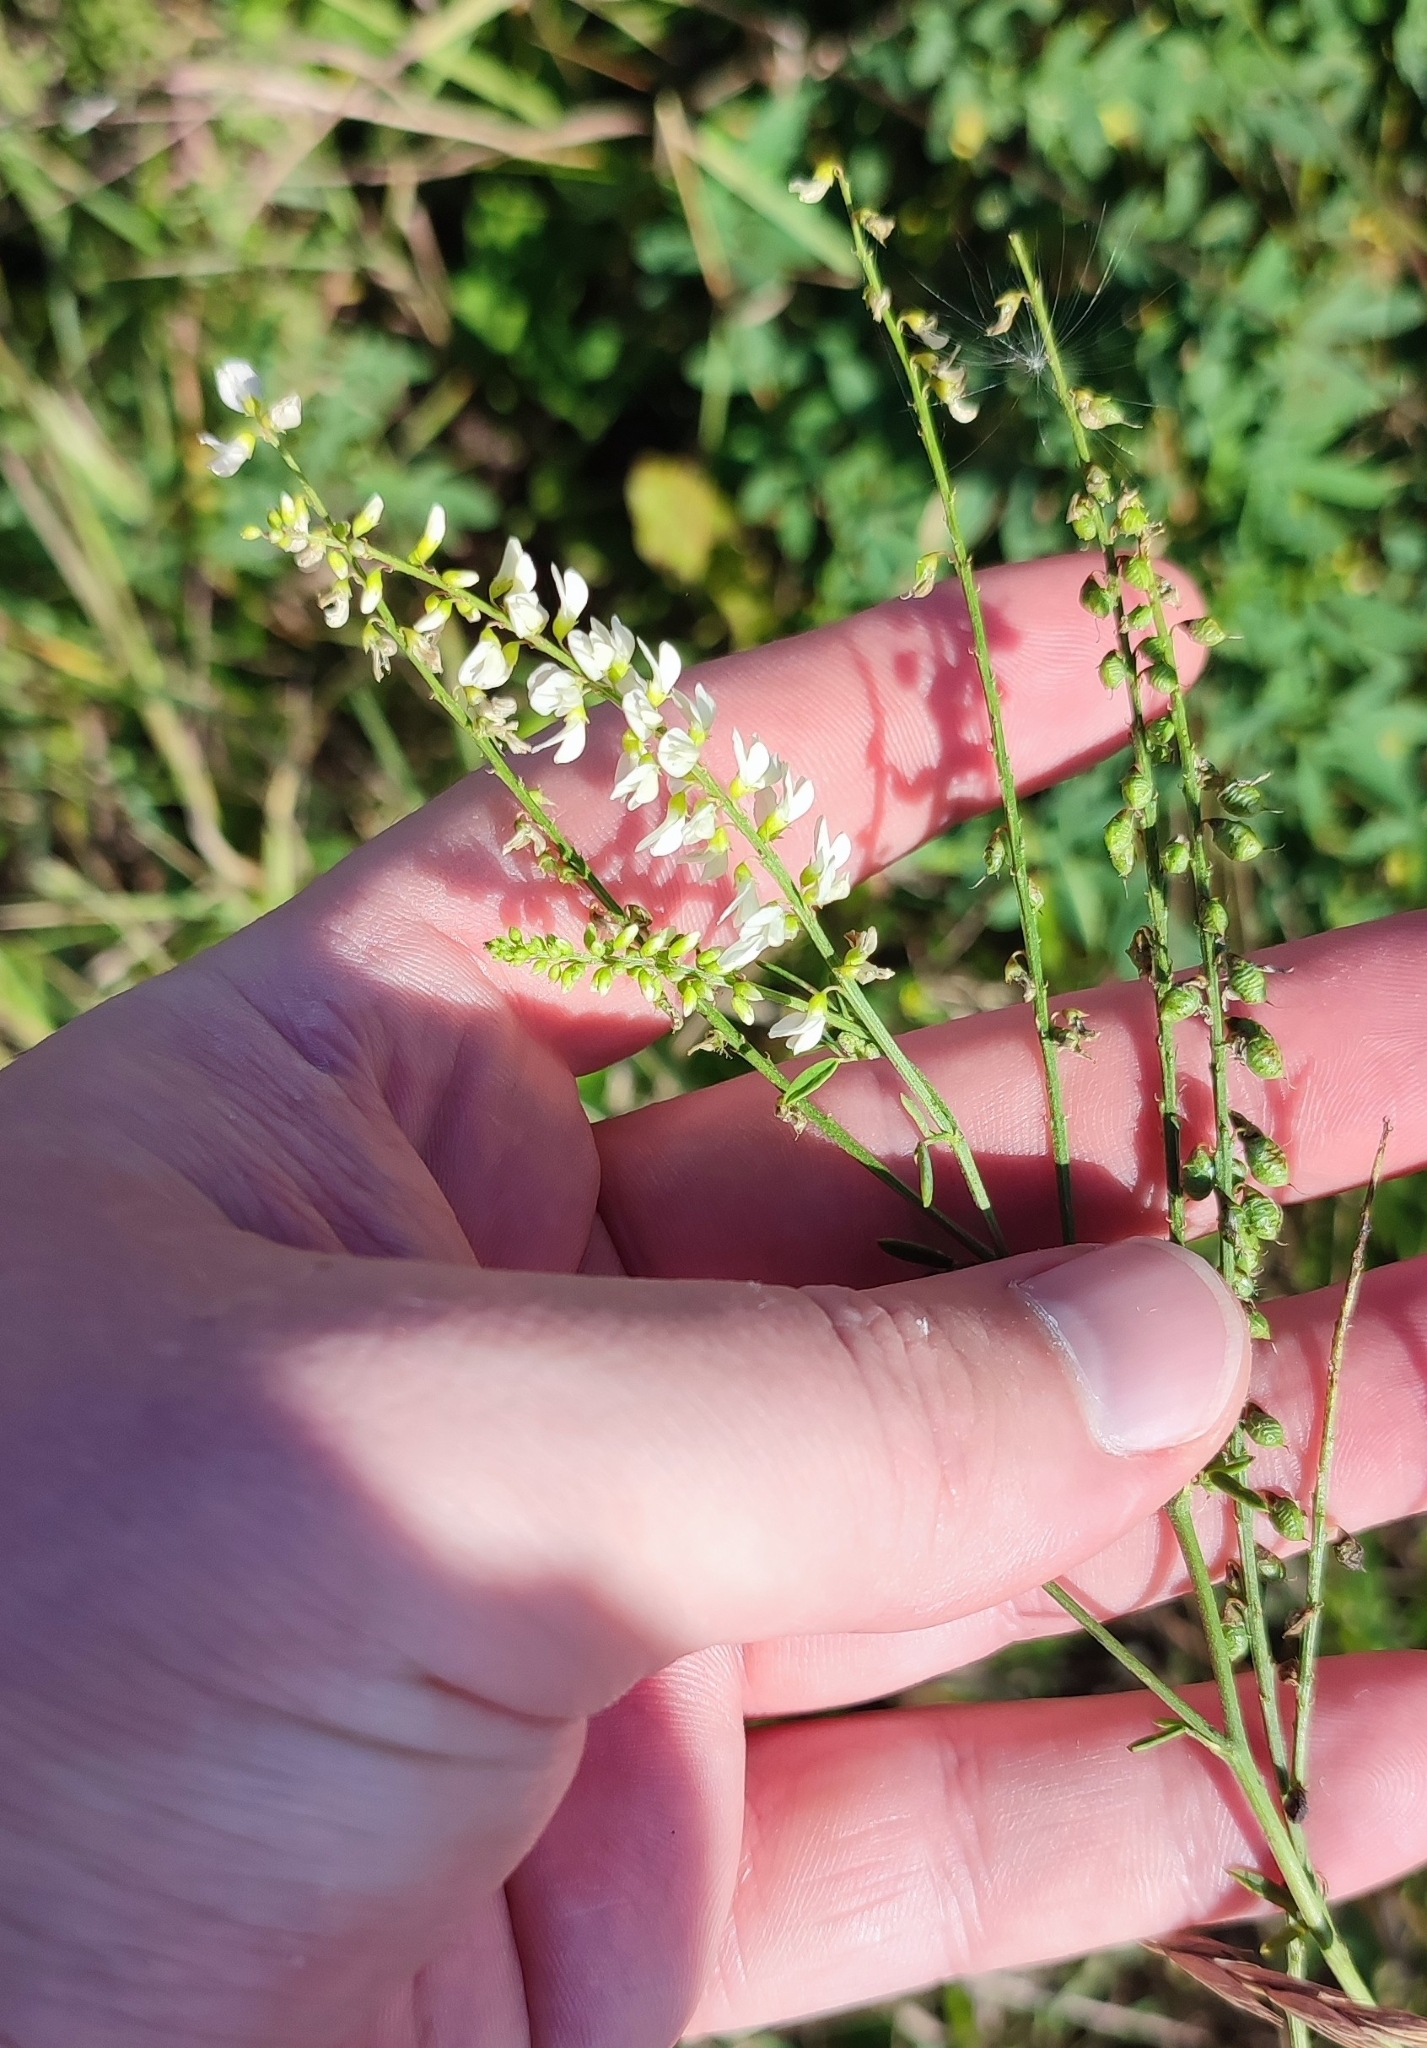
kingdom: Plantae
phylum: Tracheophyta
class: Magnoliopsida
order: Fabales
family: Fabaceae
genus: Melilotus
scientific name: Melilotus albus
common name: White melilot
